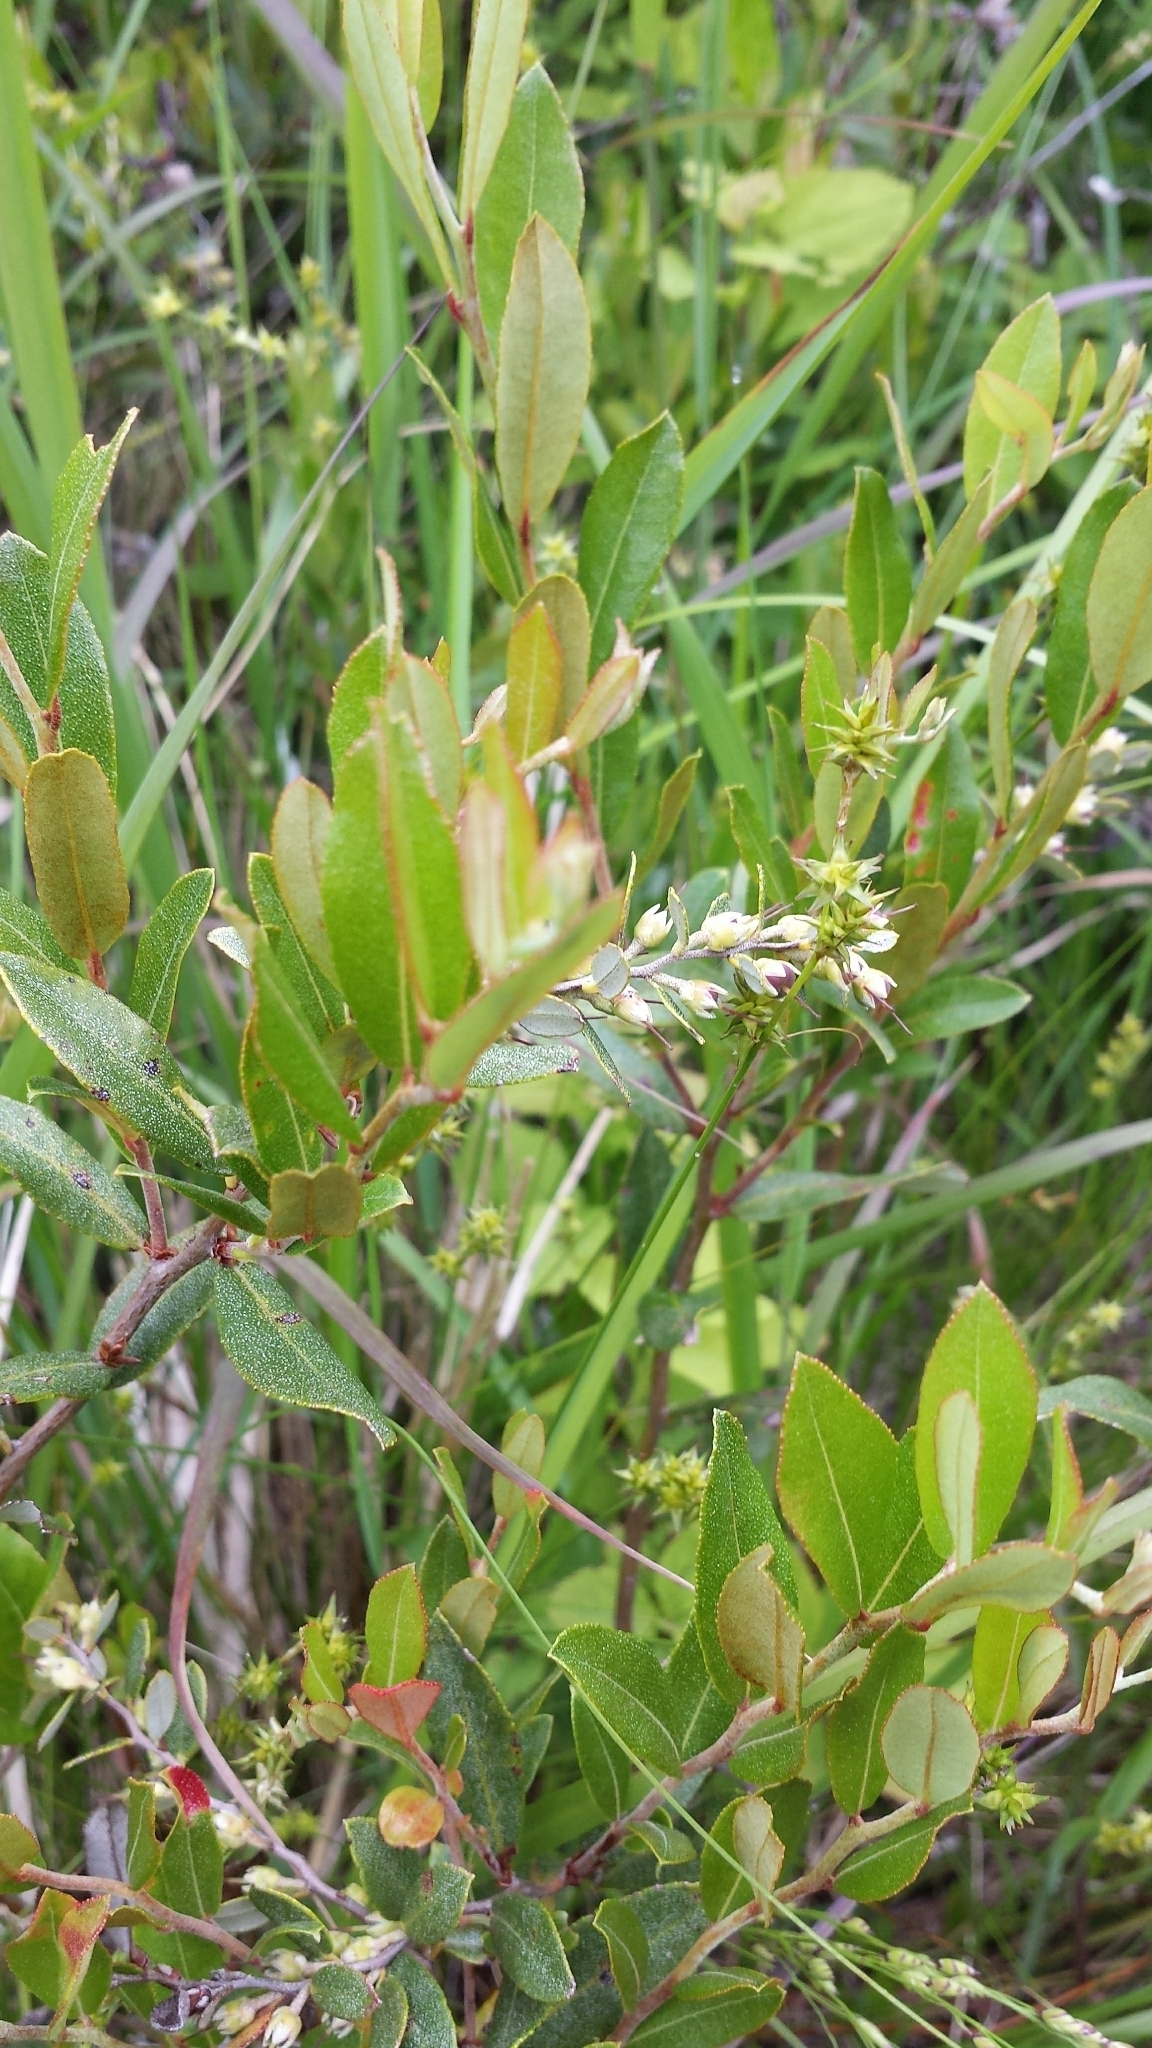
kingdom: Plantae
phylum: Tracheophyta
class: Magnoliopsida
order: Ericales
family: Ericaceae
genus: Chamaedaphne
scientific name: Chamaedaphne calyculata
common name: Leatherleaf
